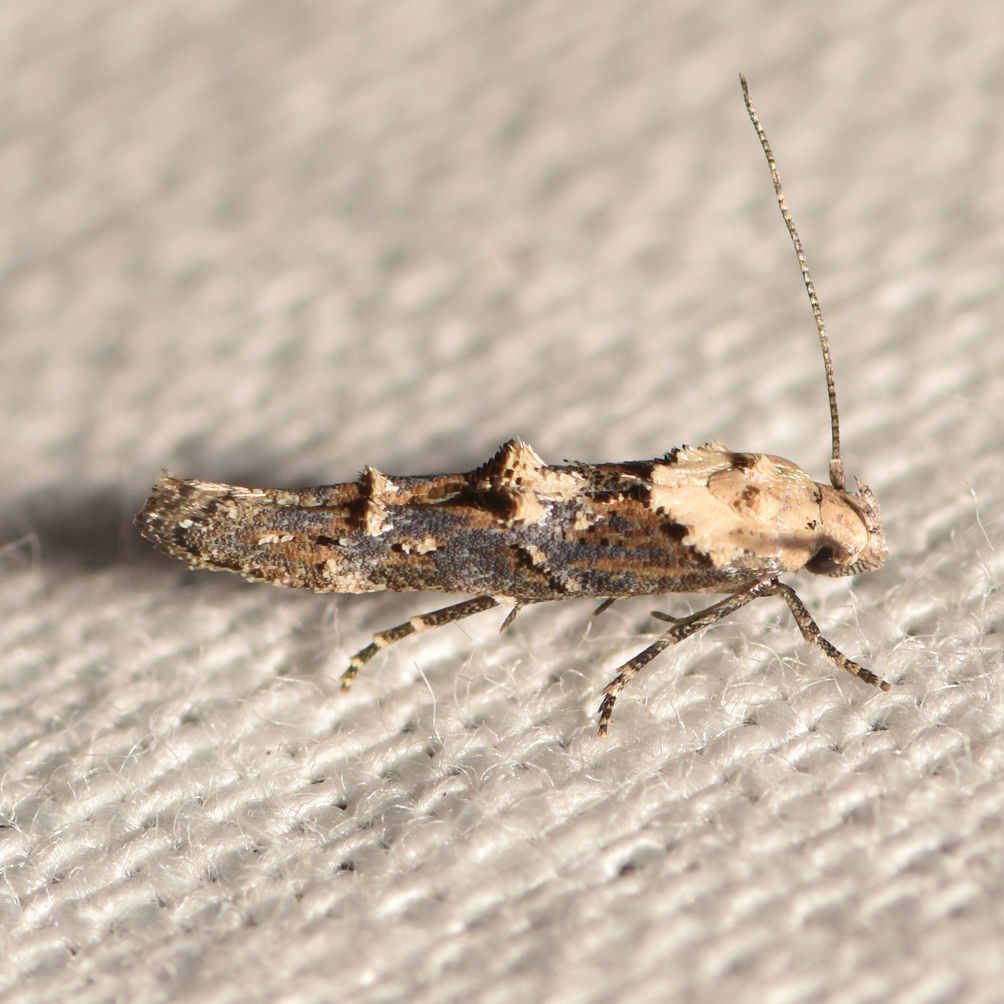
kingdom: Animalia
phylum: Arthropoda
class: Insecta
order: Lepidoptera
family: Momphidae
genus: Mompha
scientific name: Mompha albocapitella
